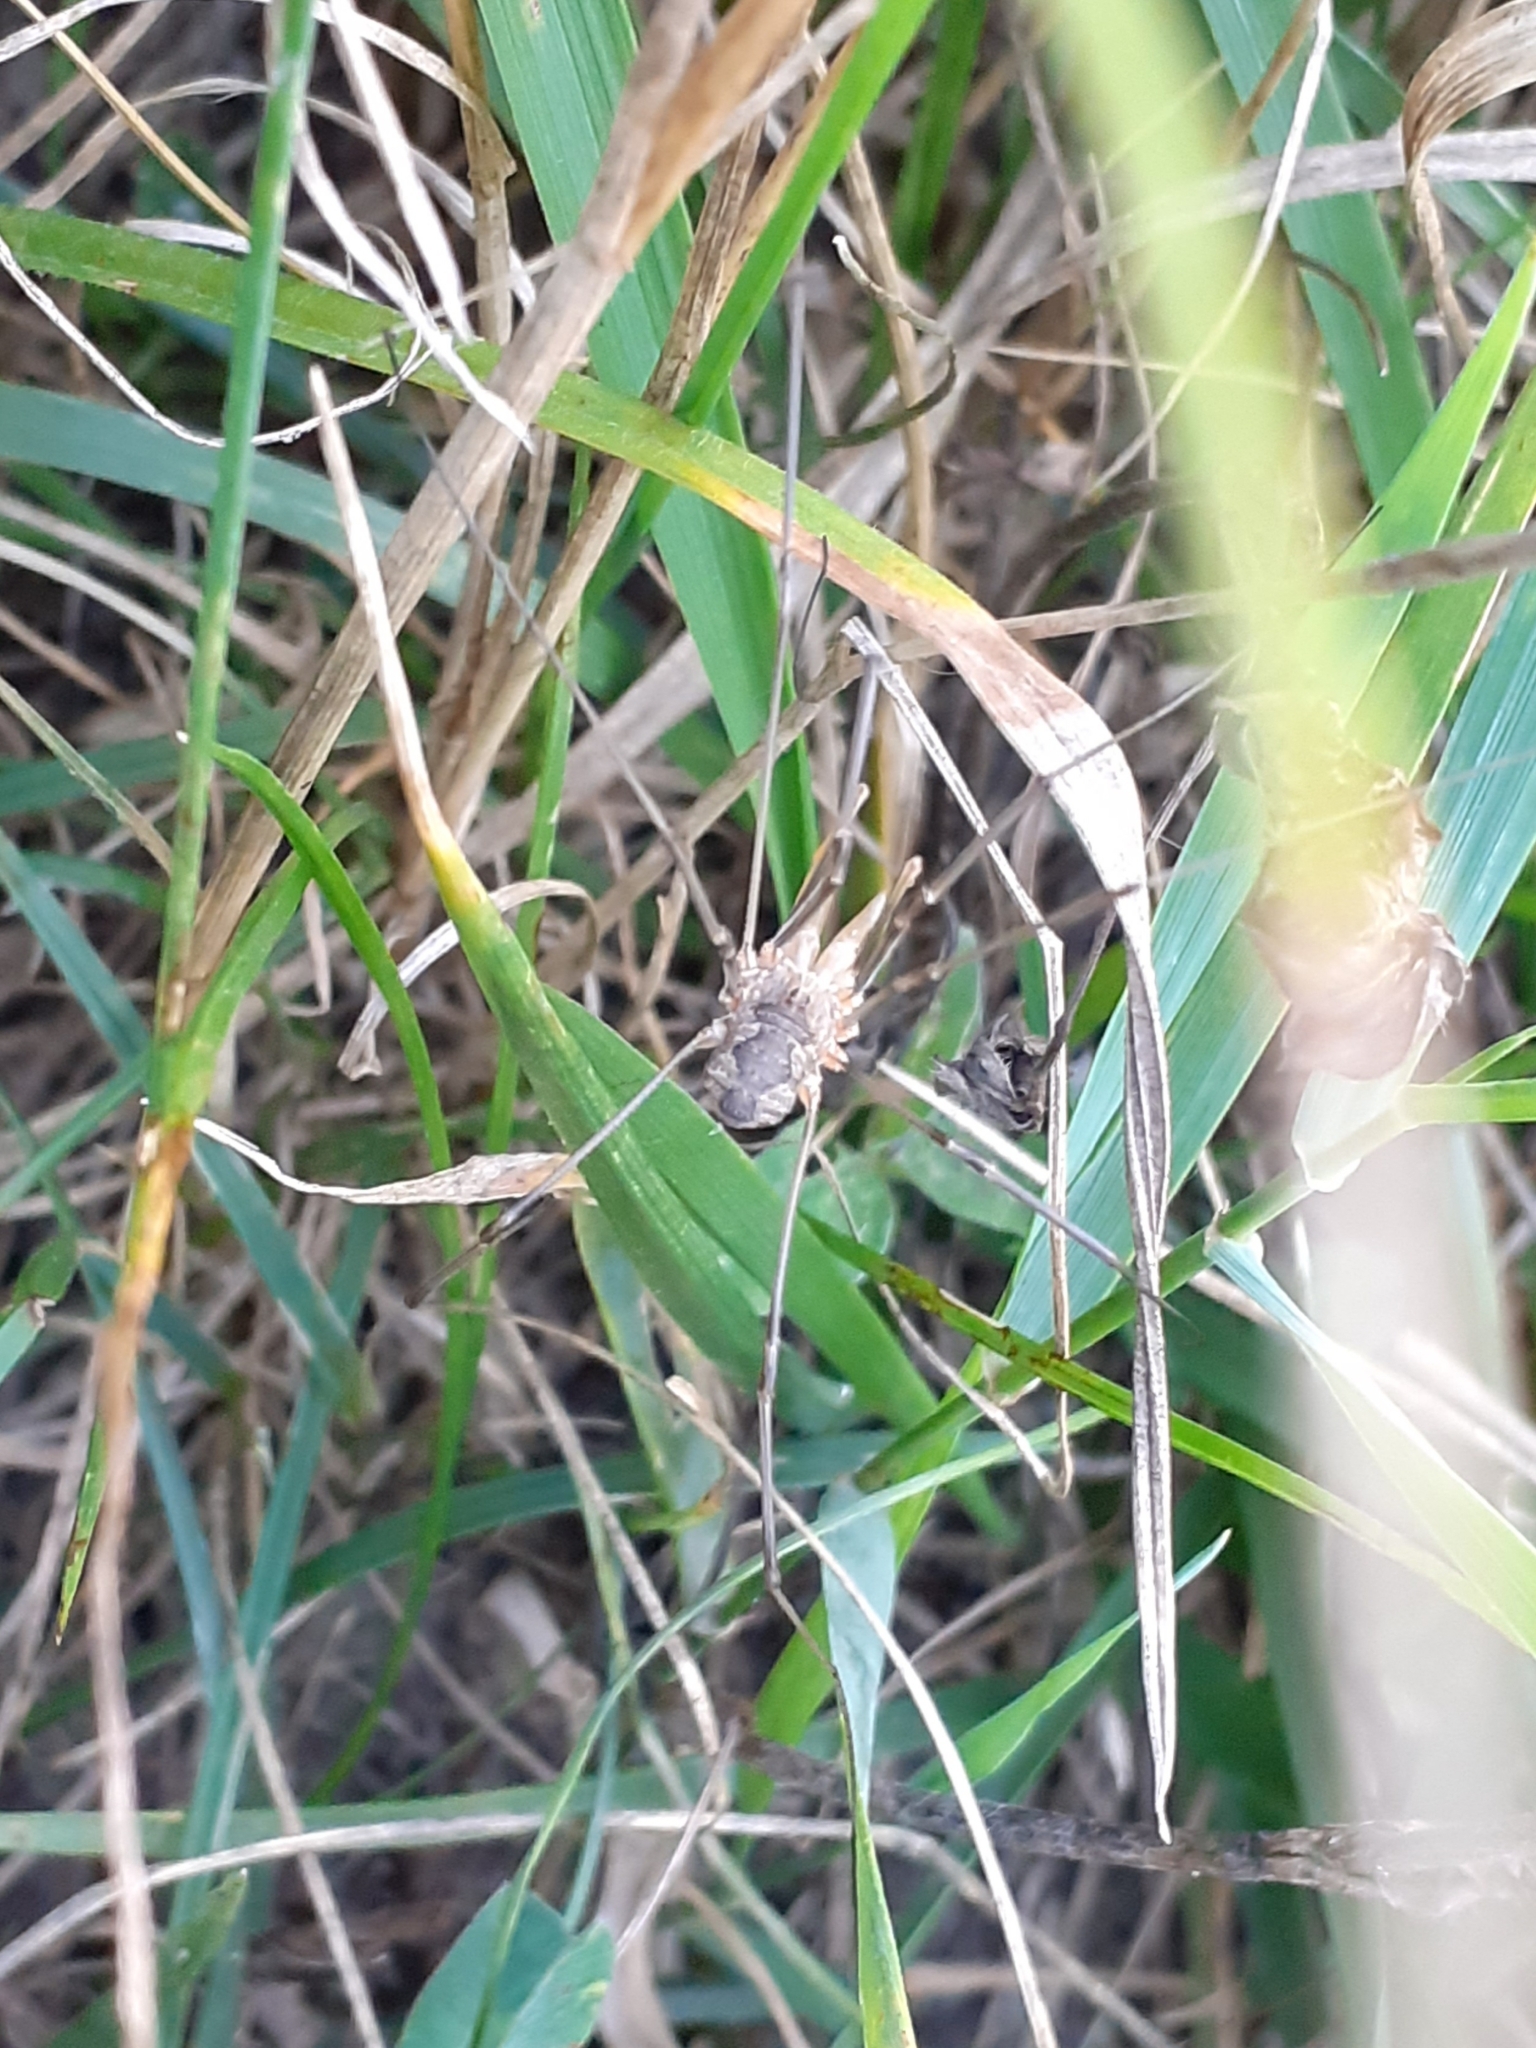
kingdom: Animalia
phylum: Arthropoda
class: Arachnida
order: Opiliones
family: Phalangiidae
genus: Phalangium
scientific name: Phalangium opilio
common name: Daddy longleg
